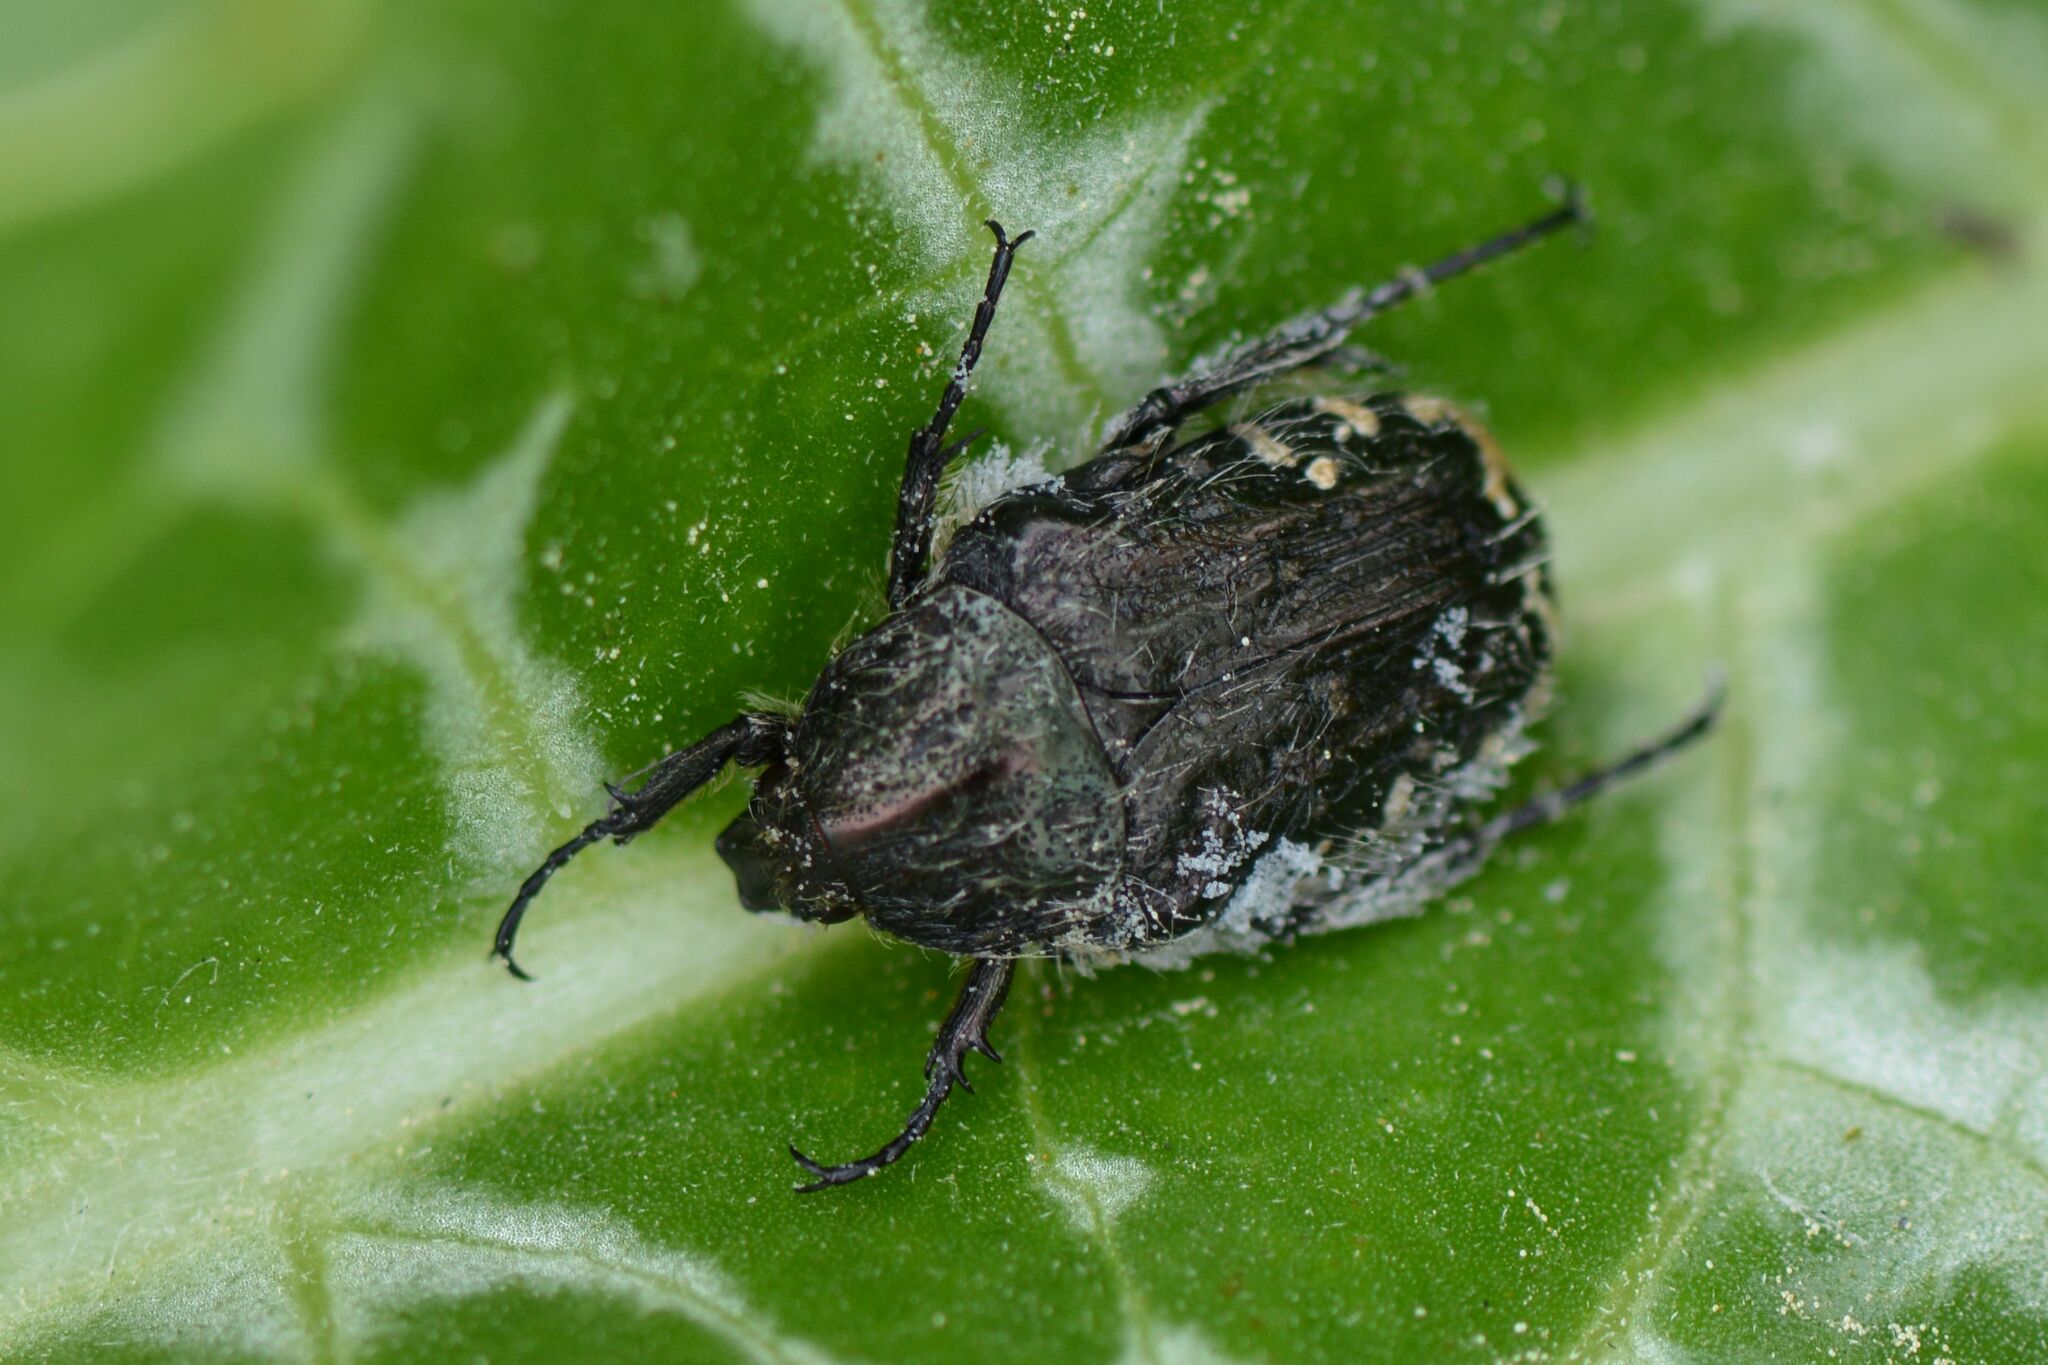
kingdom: Animalia
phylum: Arthropoda
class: Insecta
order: Coleoptera
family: Scarabaeidae
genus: Oxythyrea
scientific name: Oxythyrea funesta
